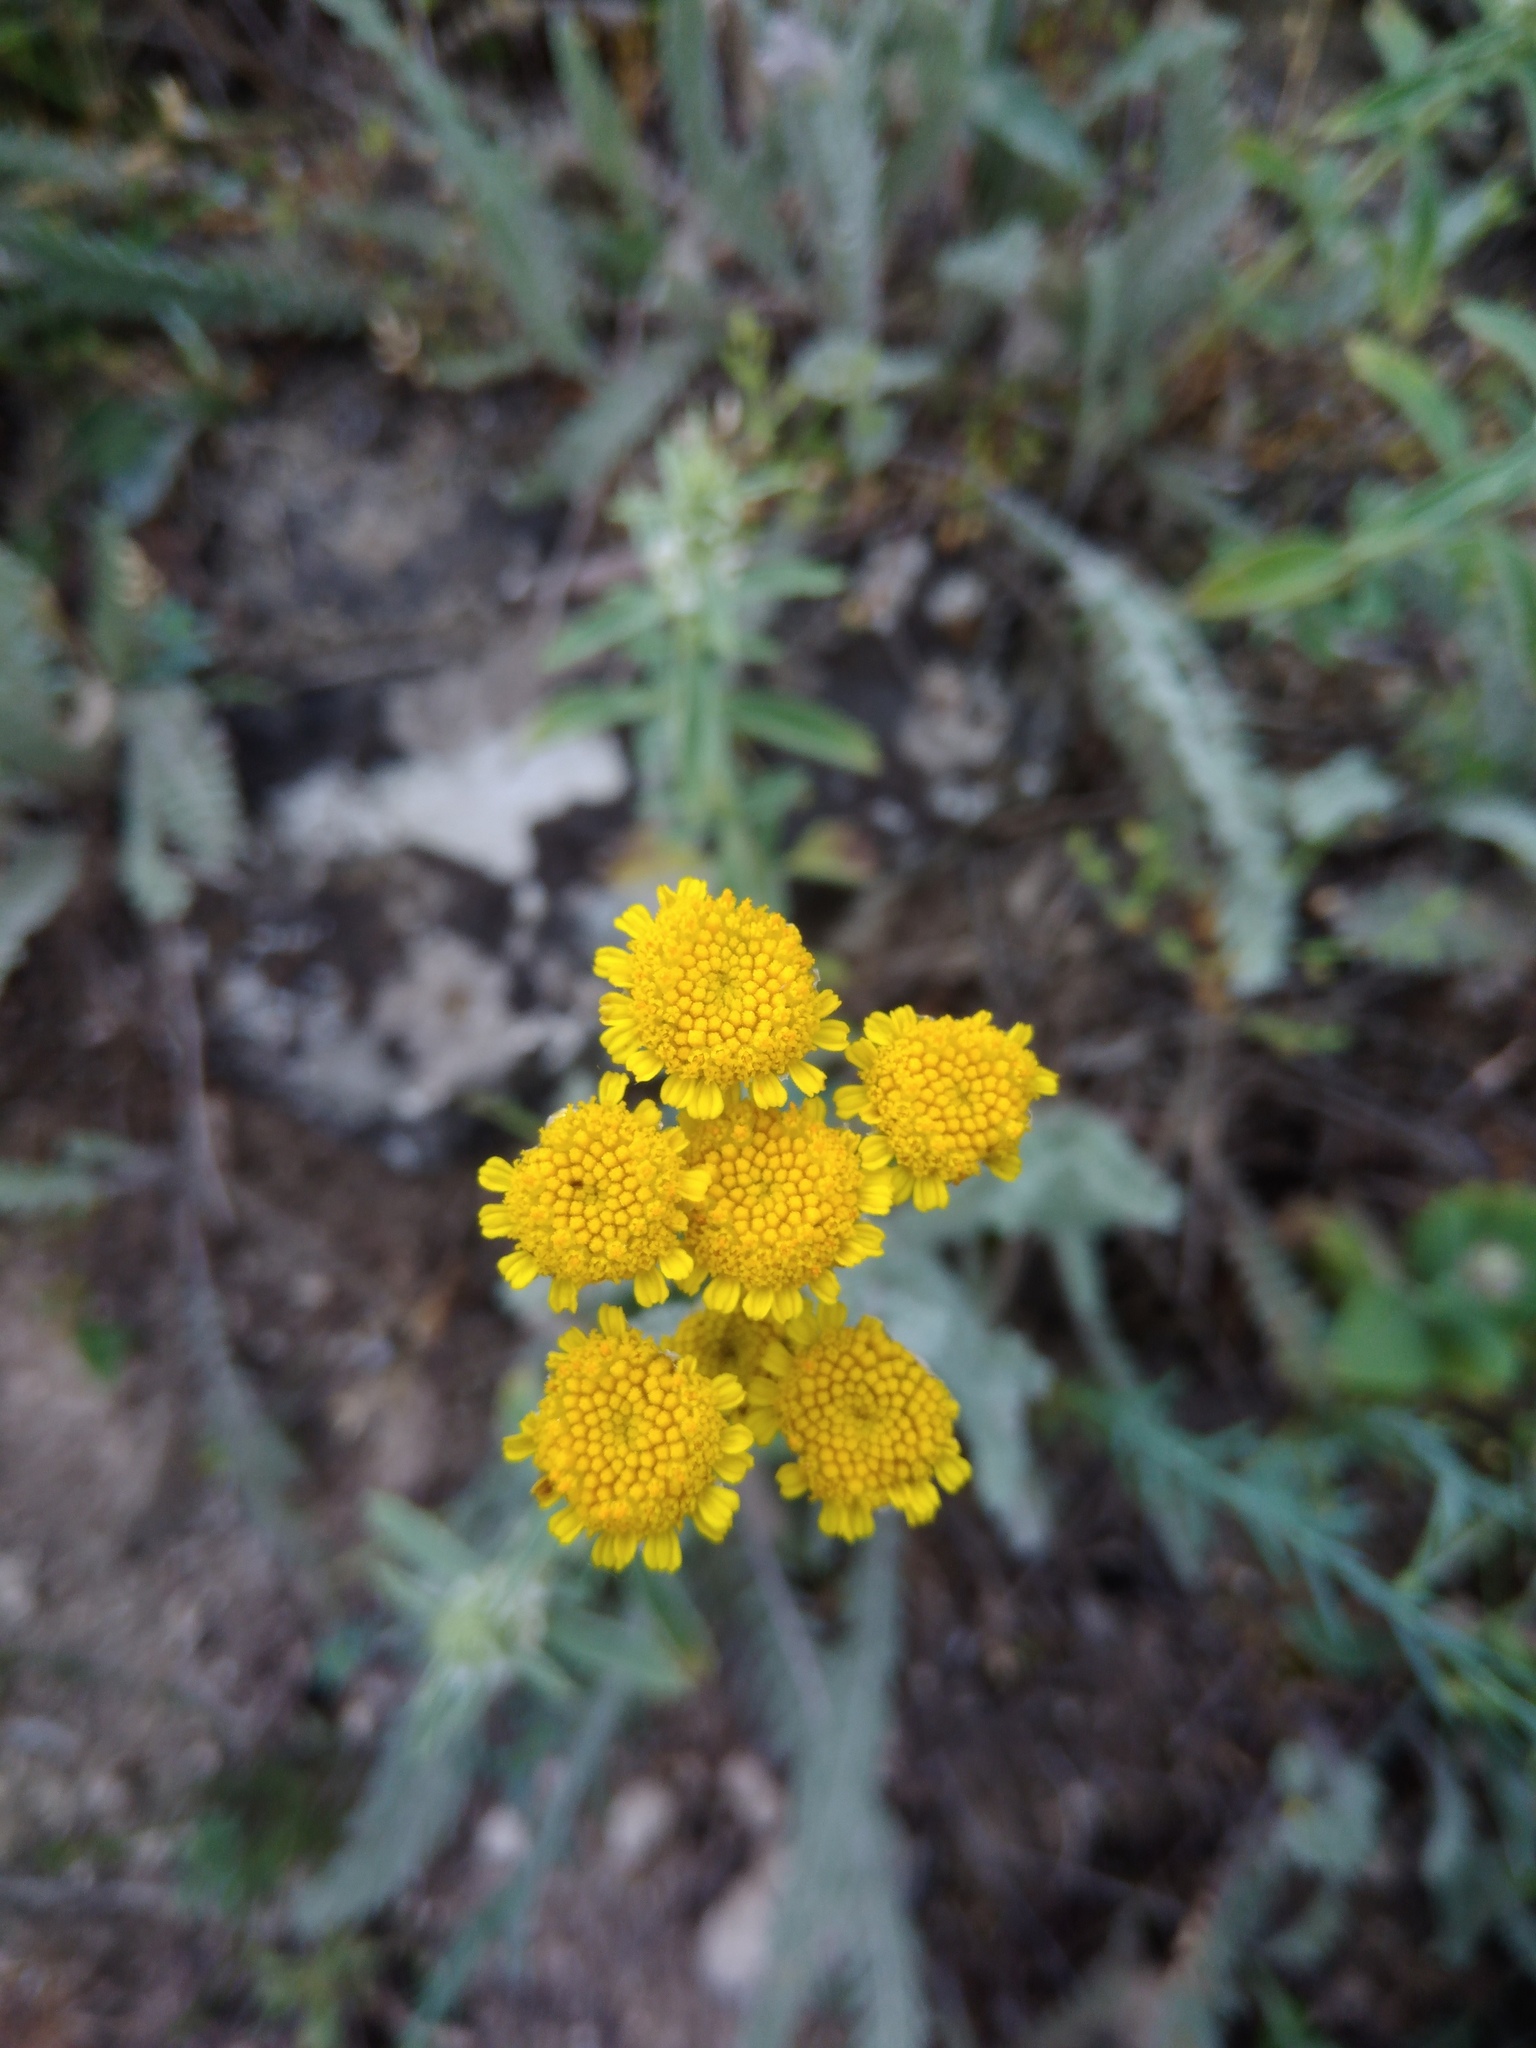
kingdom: Plantae
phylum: Tracheophyta
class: Magnoliopsida
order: Asterales
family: Asteraceae
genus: Tanacetum
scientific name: Tanacetum millefolium
